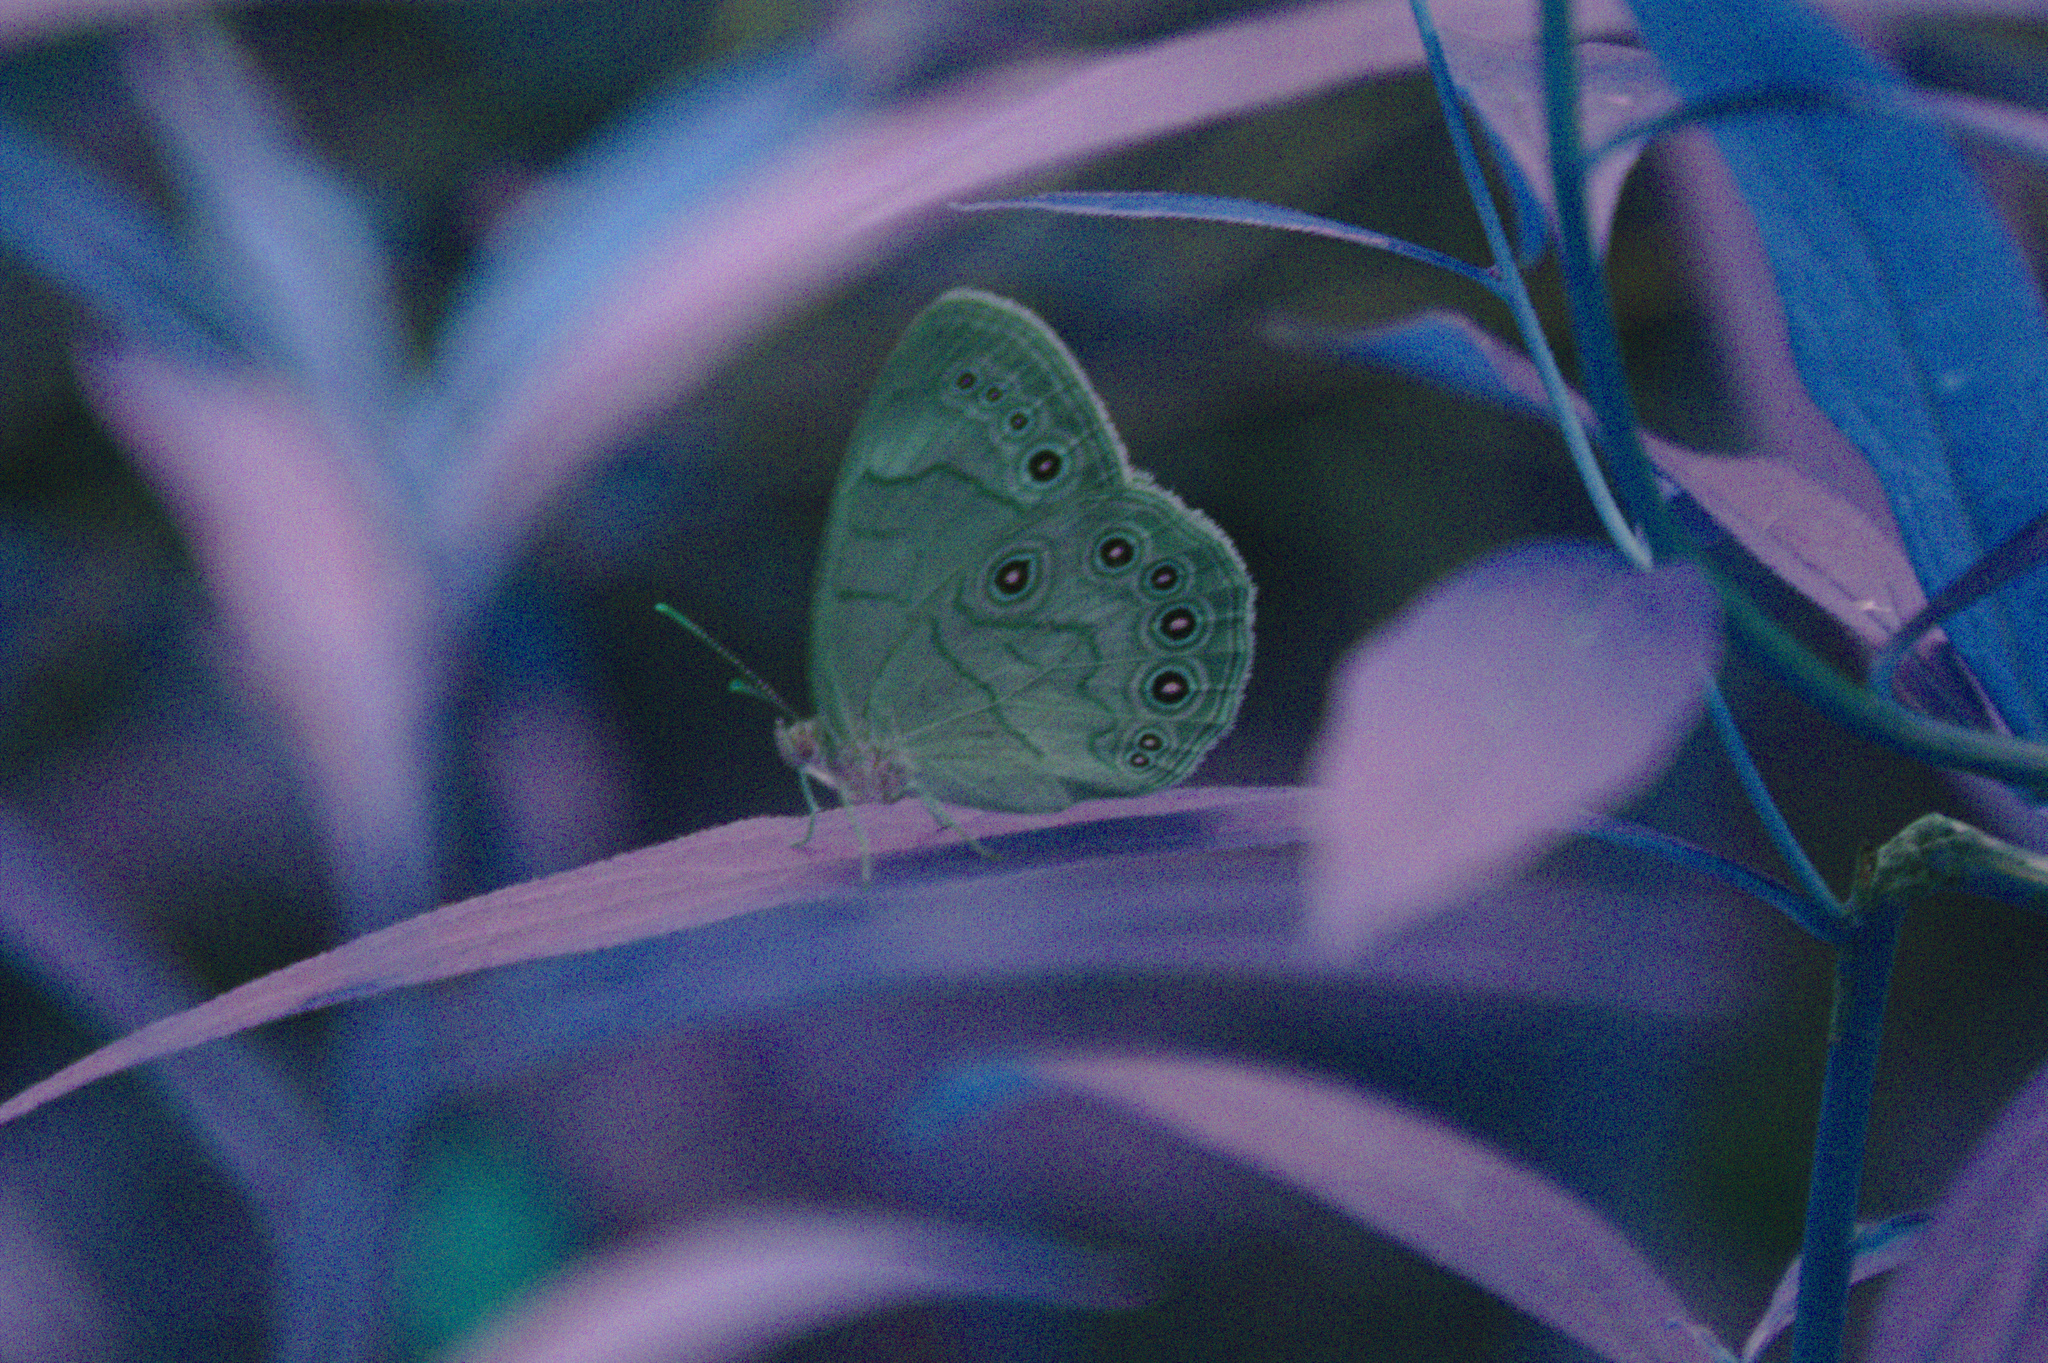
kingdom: Animalia
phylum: Arthropoda
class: Insecta
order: Lepidoptera
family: Nymphalidae
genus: Lethe
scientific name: Lethe eurydice
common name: Eyed brown
